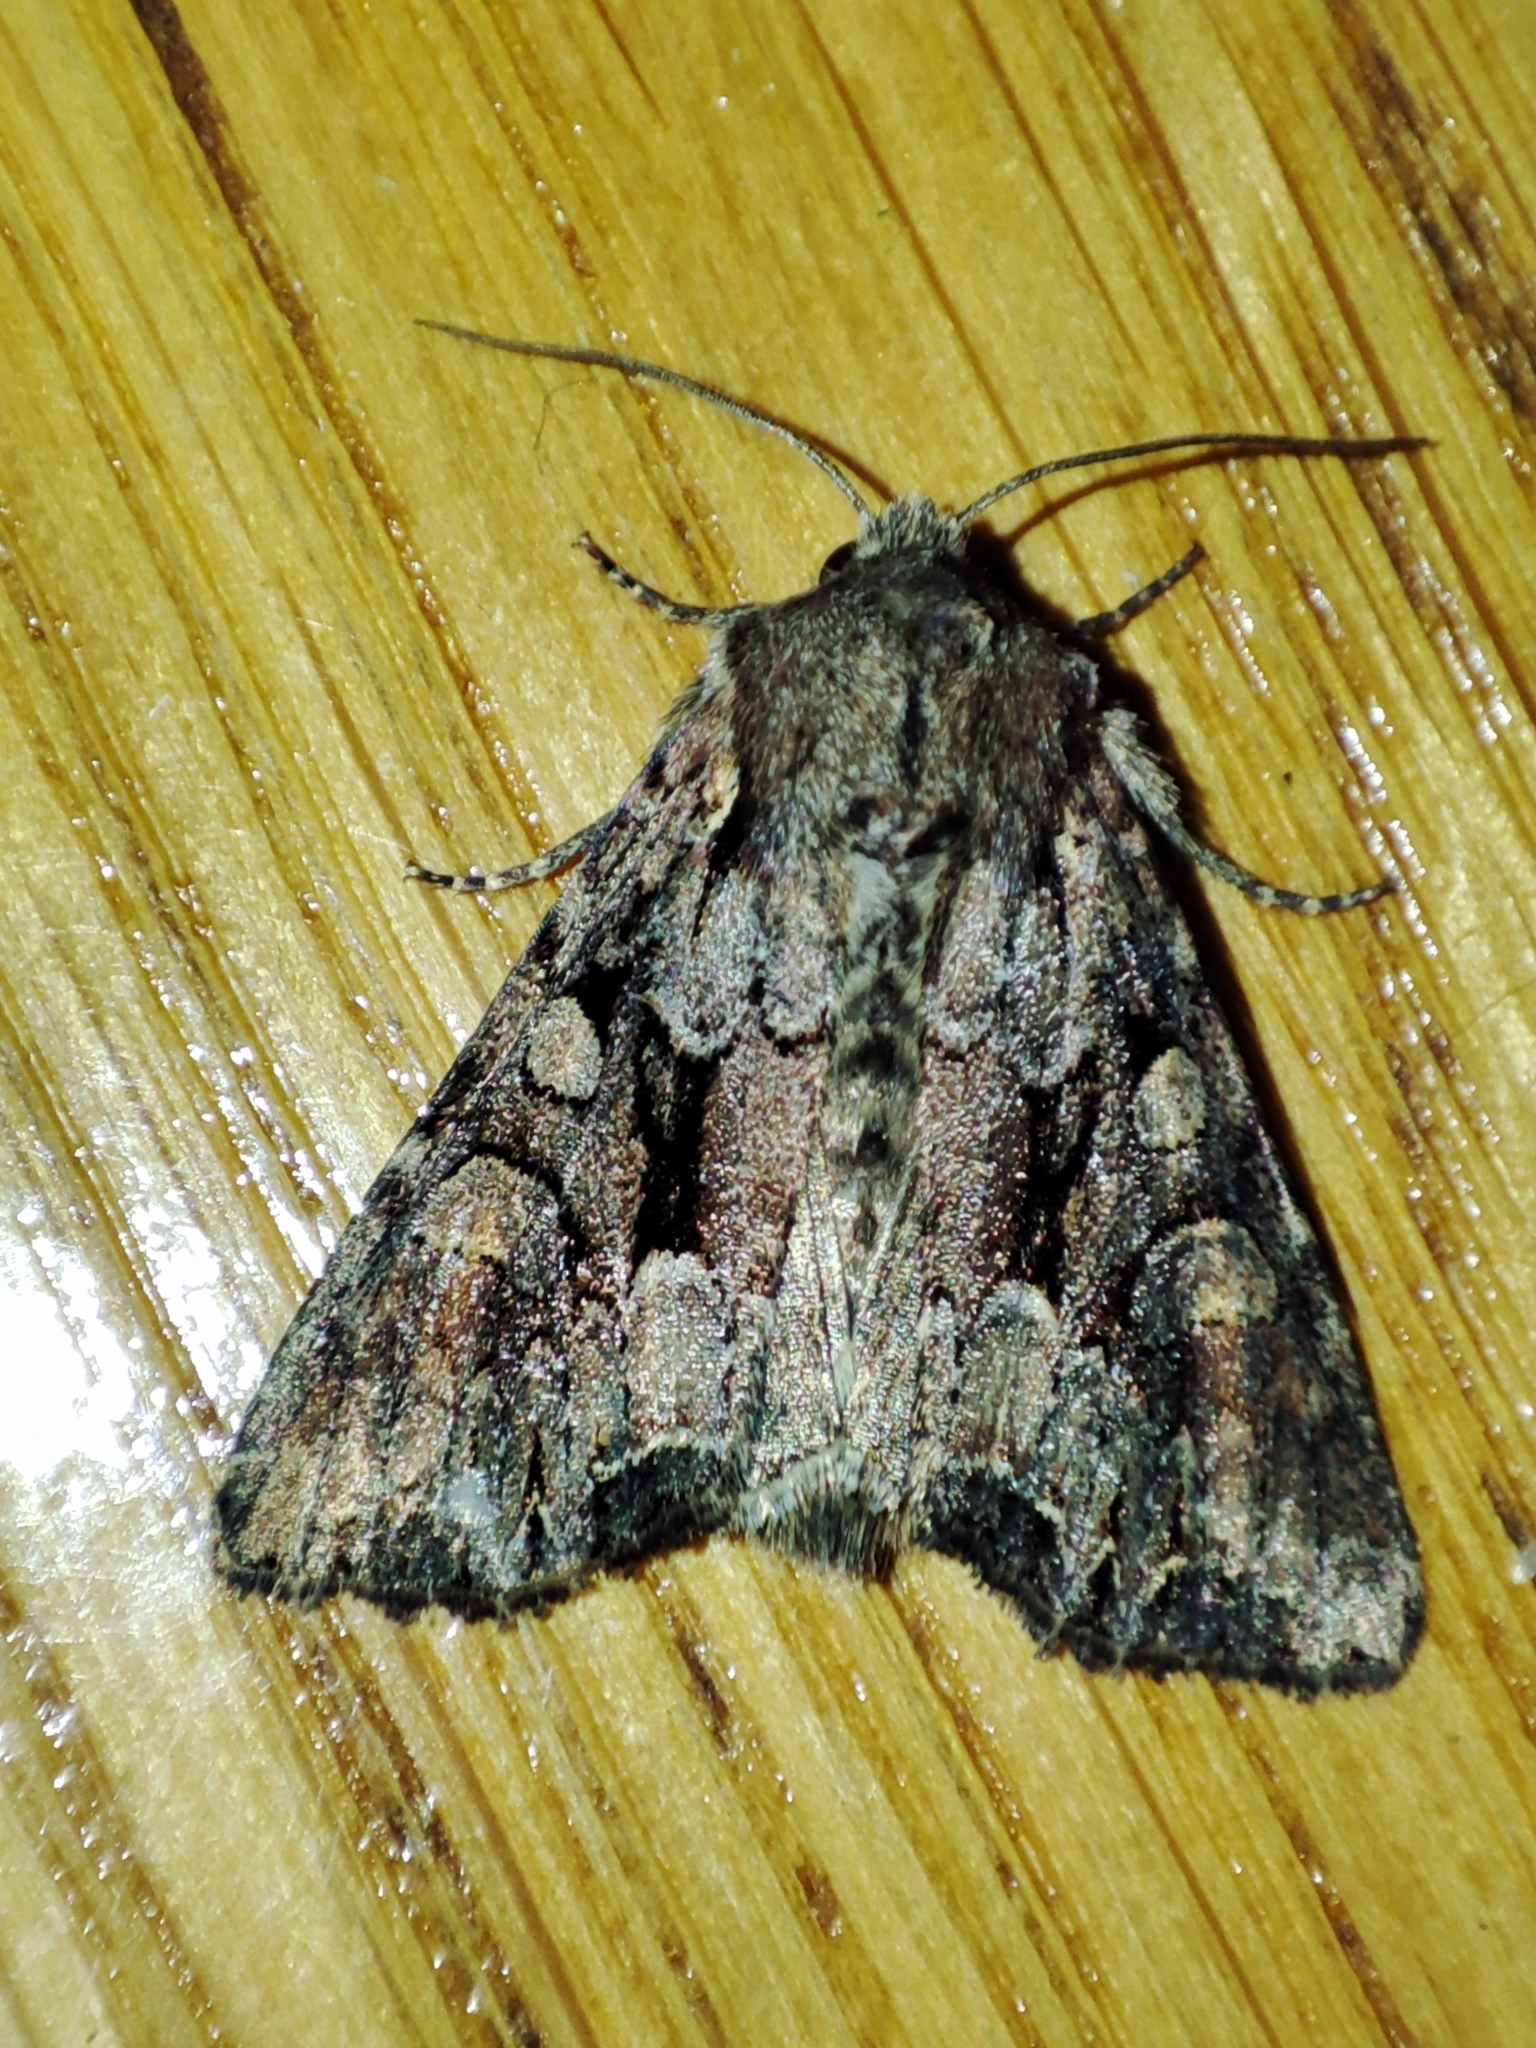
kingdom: Animalia
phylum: Arthropoda
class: Insecta
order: Lepidoptera
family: Noctuidae
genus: Lacanobia
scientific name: Lacanobia thalassina
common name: Pale-shouldered brocade
